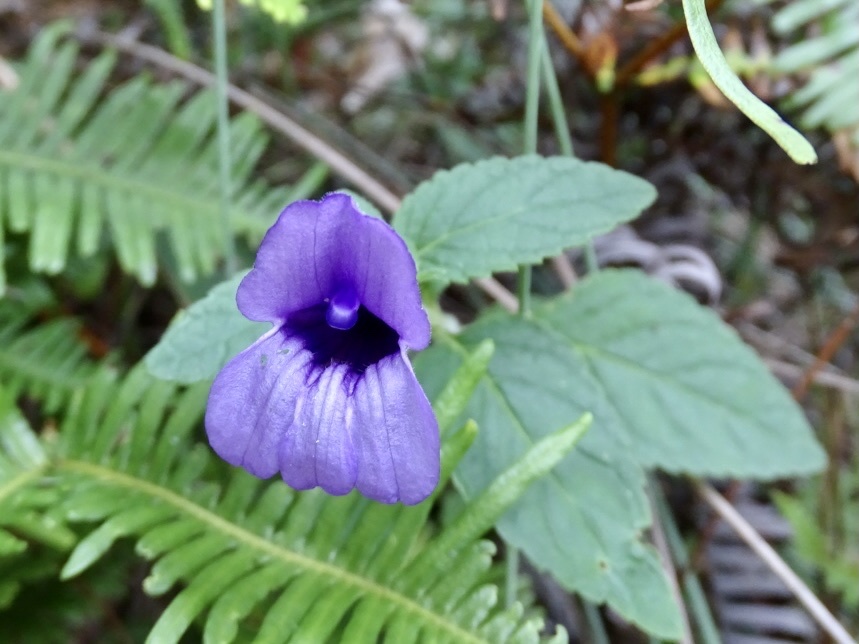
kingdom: Plantae
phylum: Tracheophyta
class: Magnoliopsida
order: Lamiales
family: Plantaginaceae
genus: Adenosma
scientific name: Adenosma glutinosa
